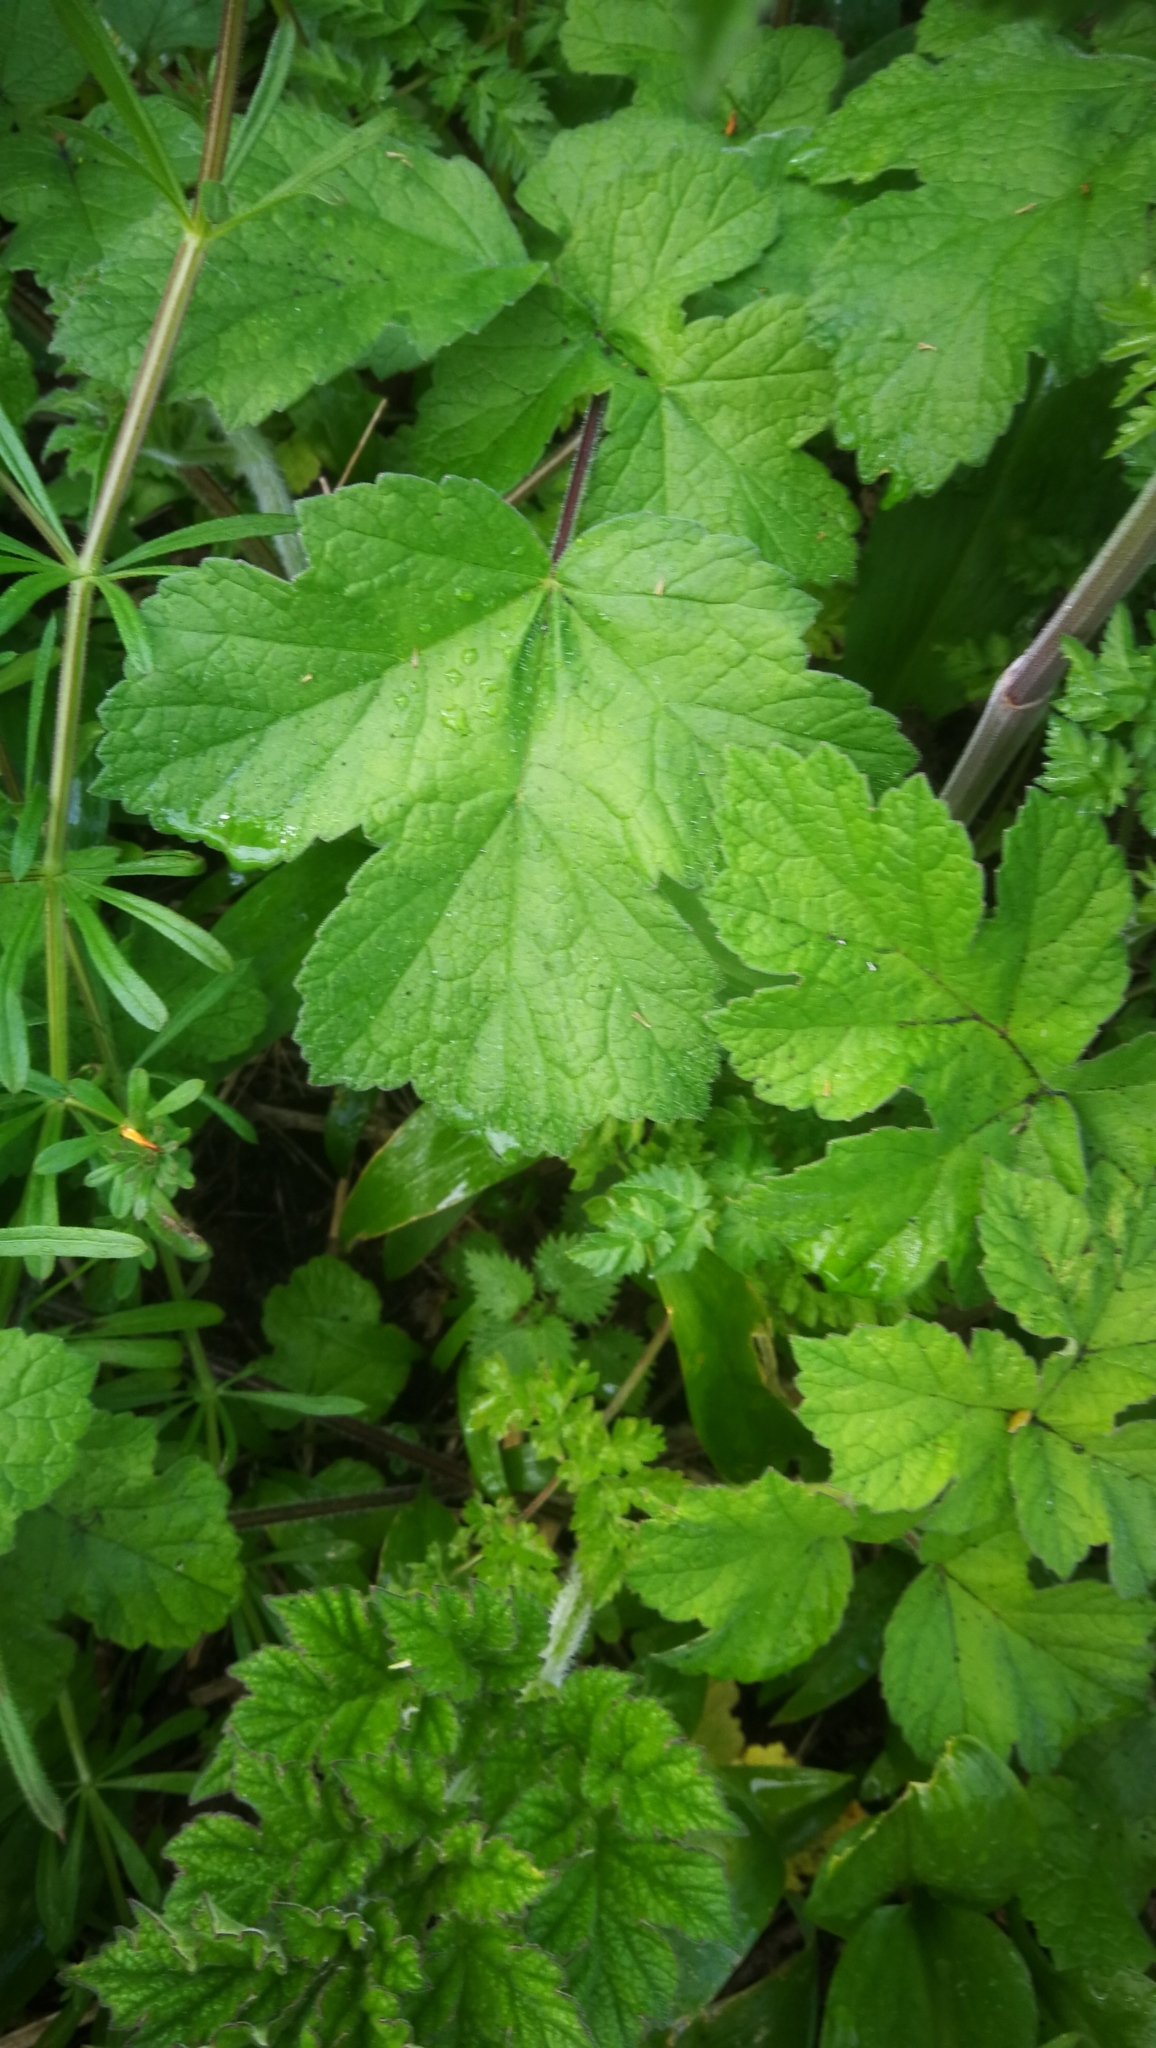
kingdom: Plantae
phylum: Tracheophyta
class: Magnoliopsida
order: Apiales
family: Apiaceae
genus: Heracleum
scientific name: Heracleum sphondylium
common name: Hogweed
